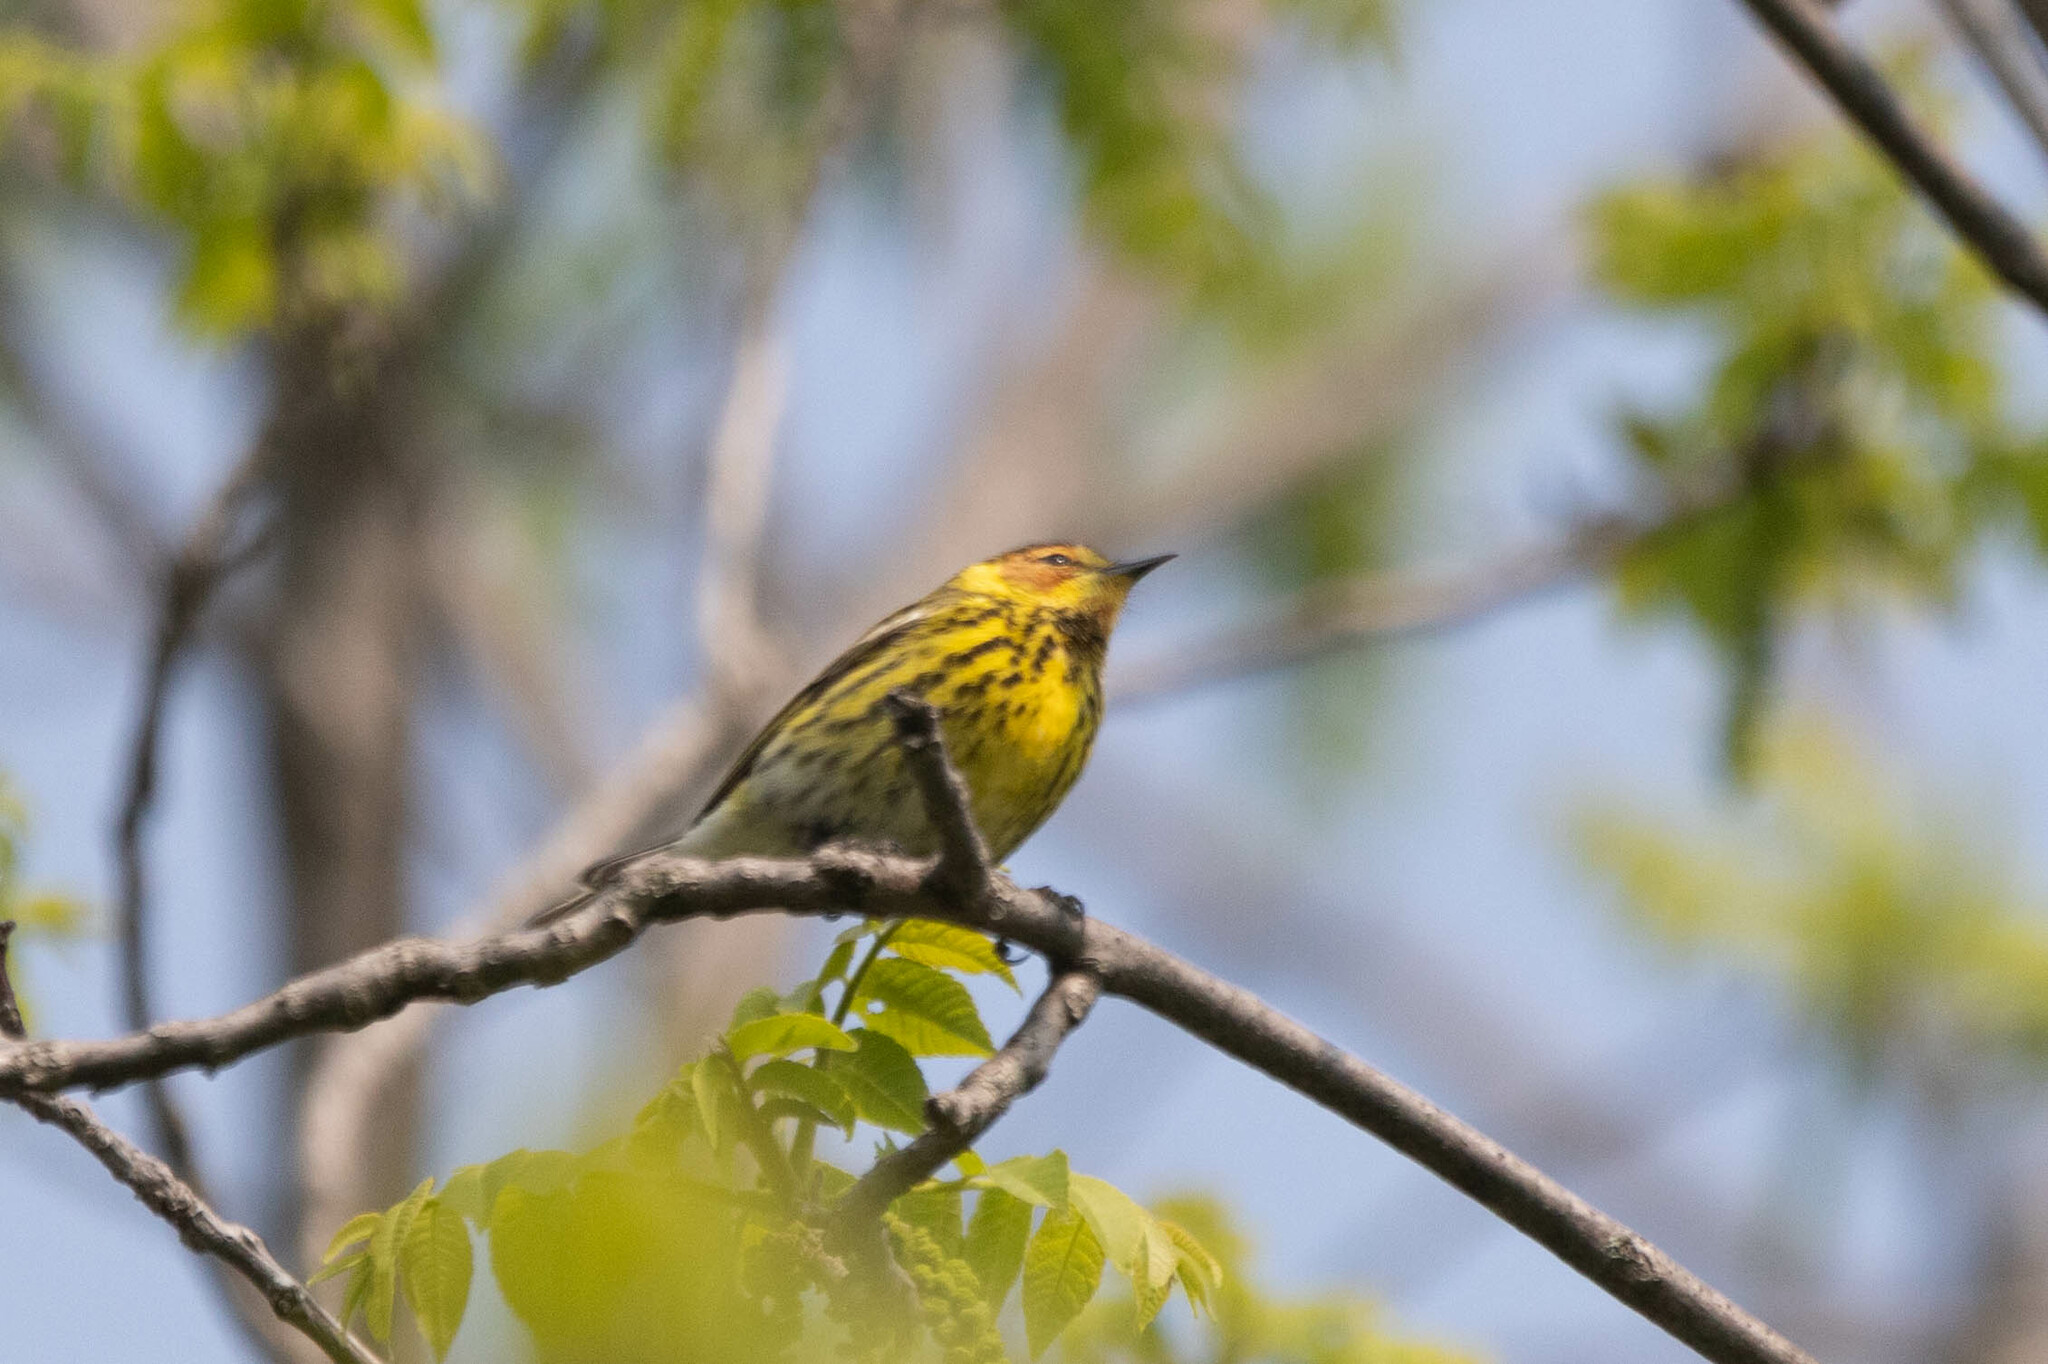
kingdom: Animalia
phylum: Chordata
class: Aves
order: Passeriformes
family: Parulidae
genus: Setophaga
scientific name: Setophaga tigrina
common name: Cape may warbler
